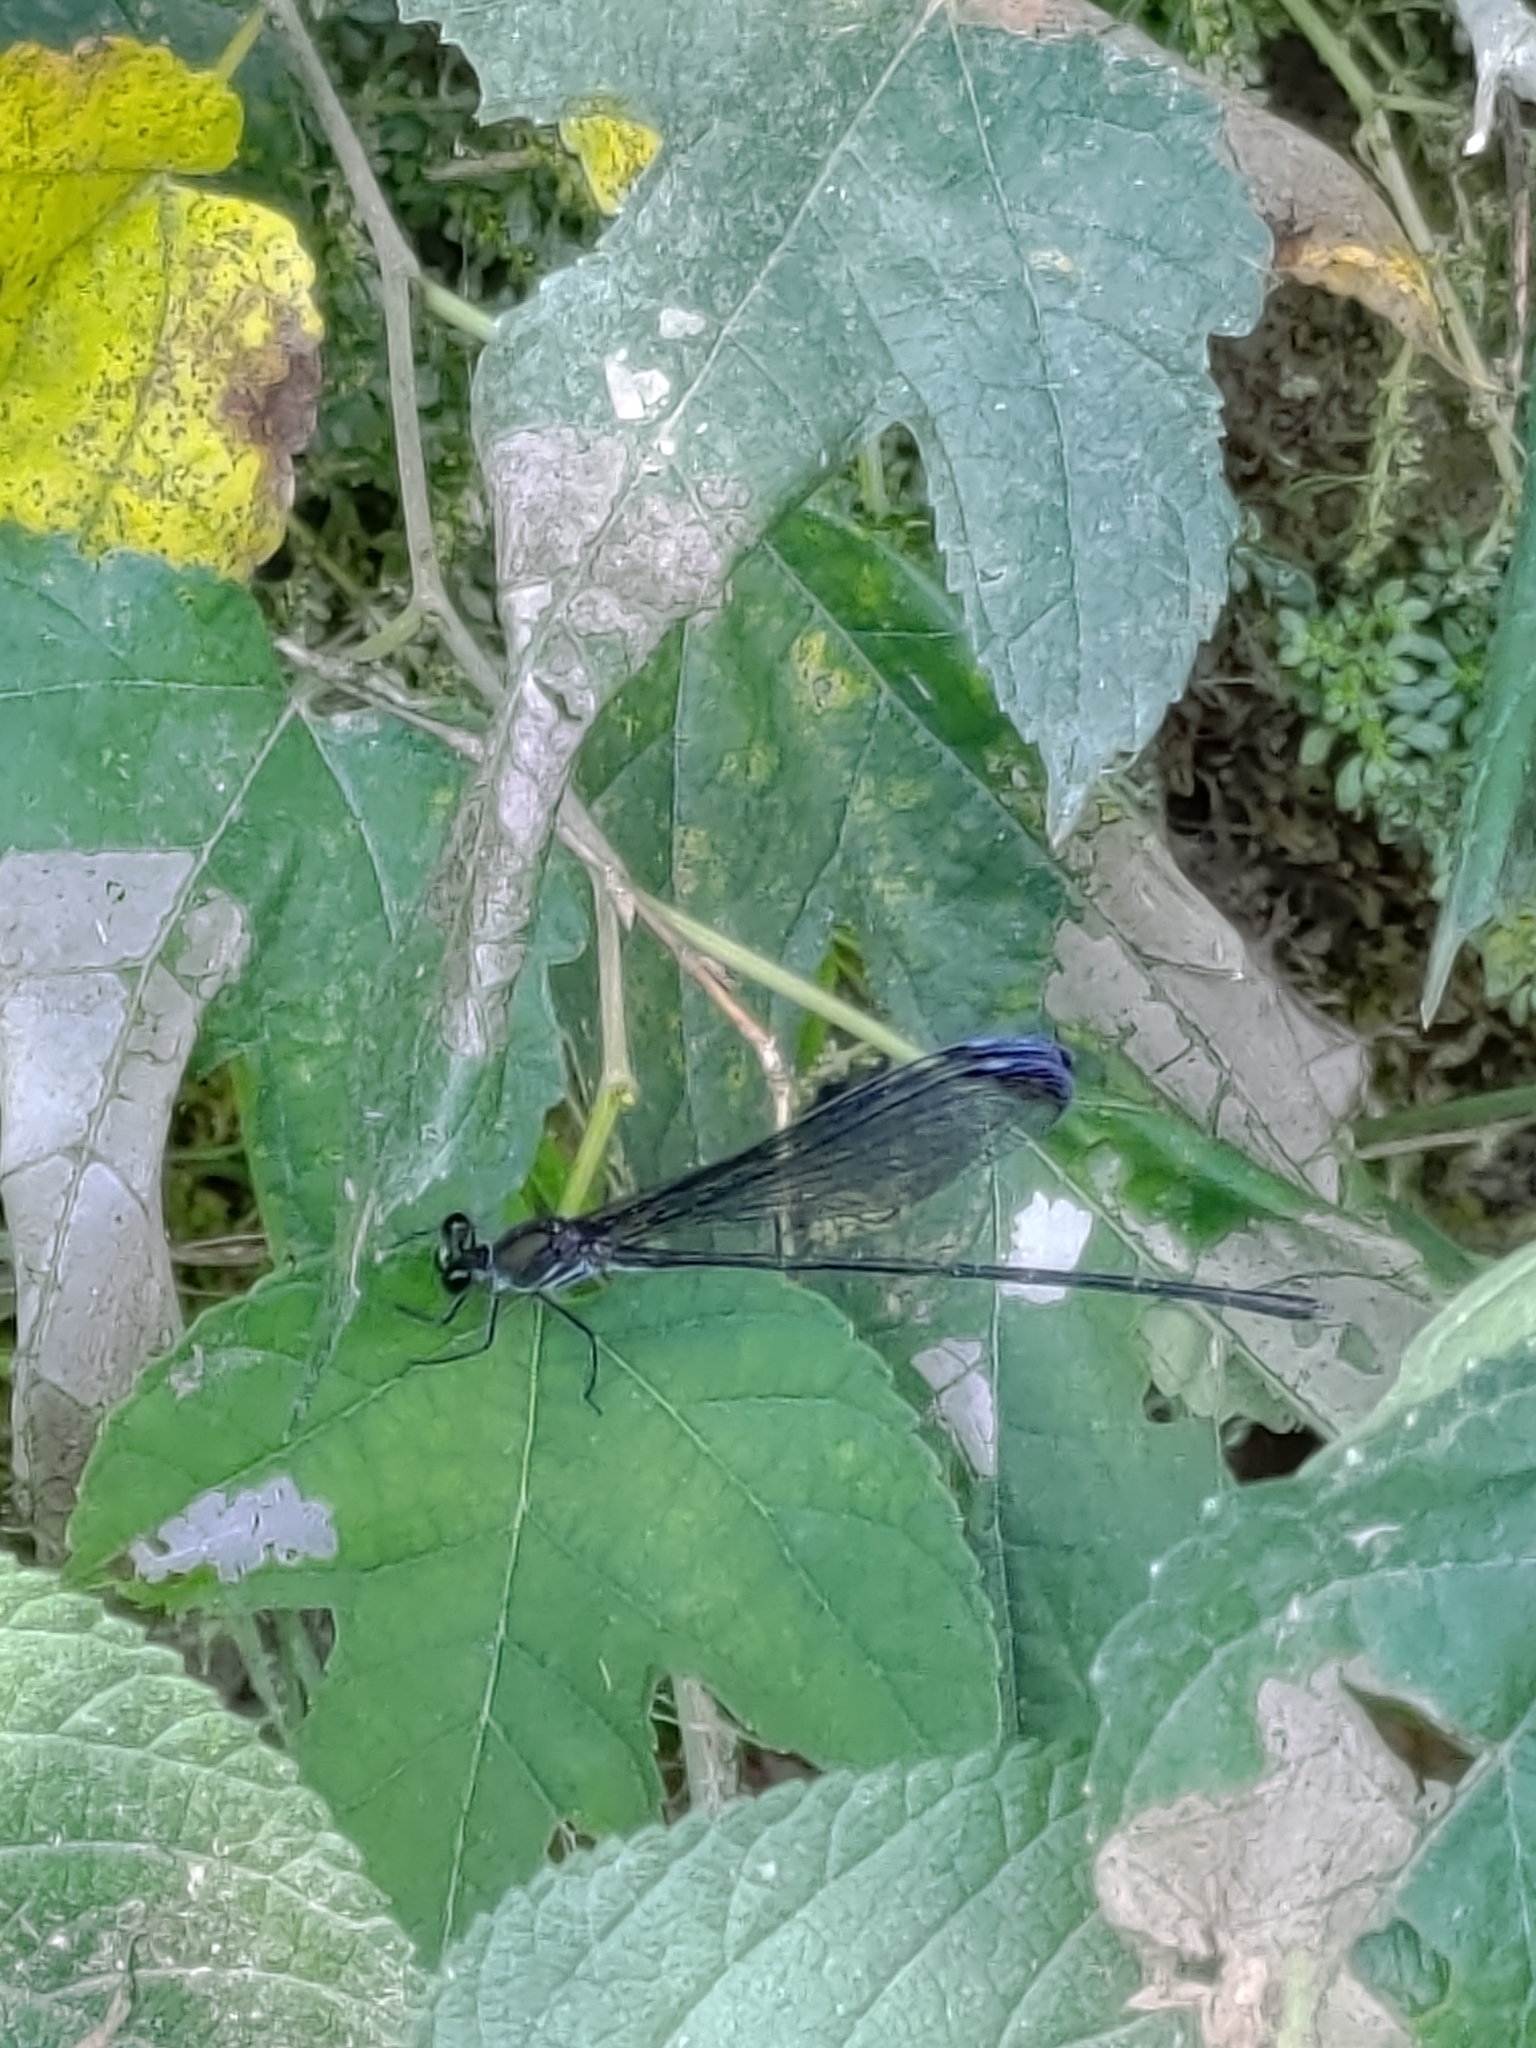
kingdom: Animalia
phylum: Arthropoda
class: Insecta
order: Odonata
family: Calopterygidae
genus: Psolodesmus
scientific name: Psolodesmus mandarinus
